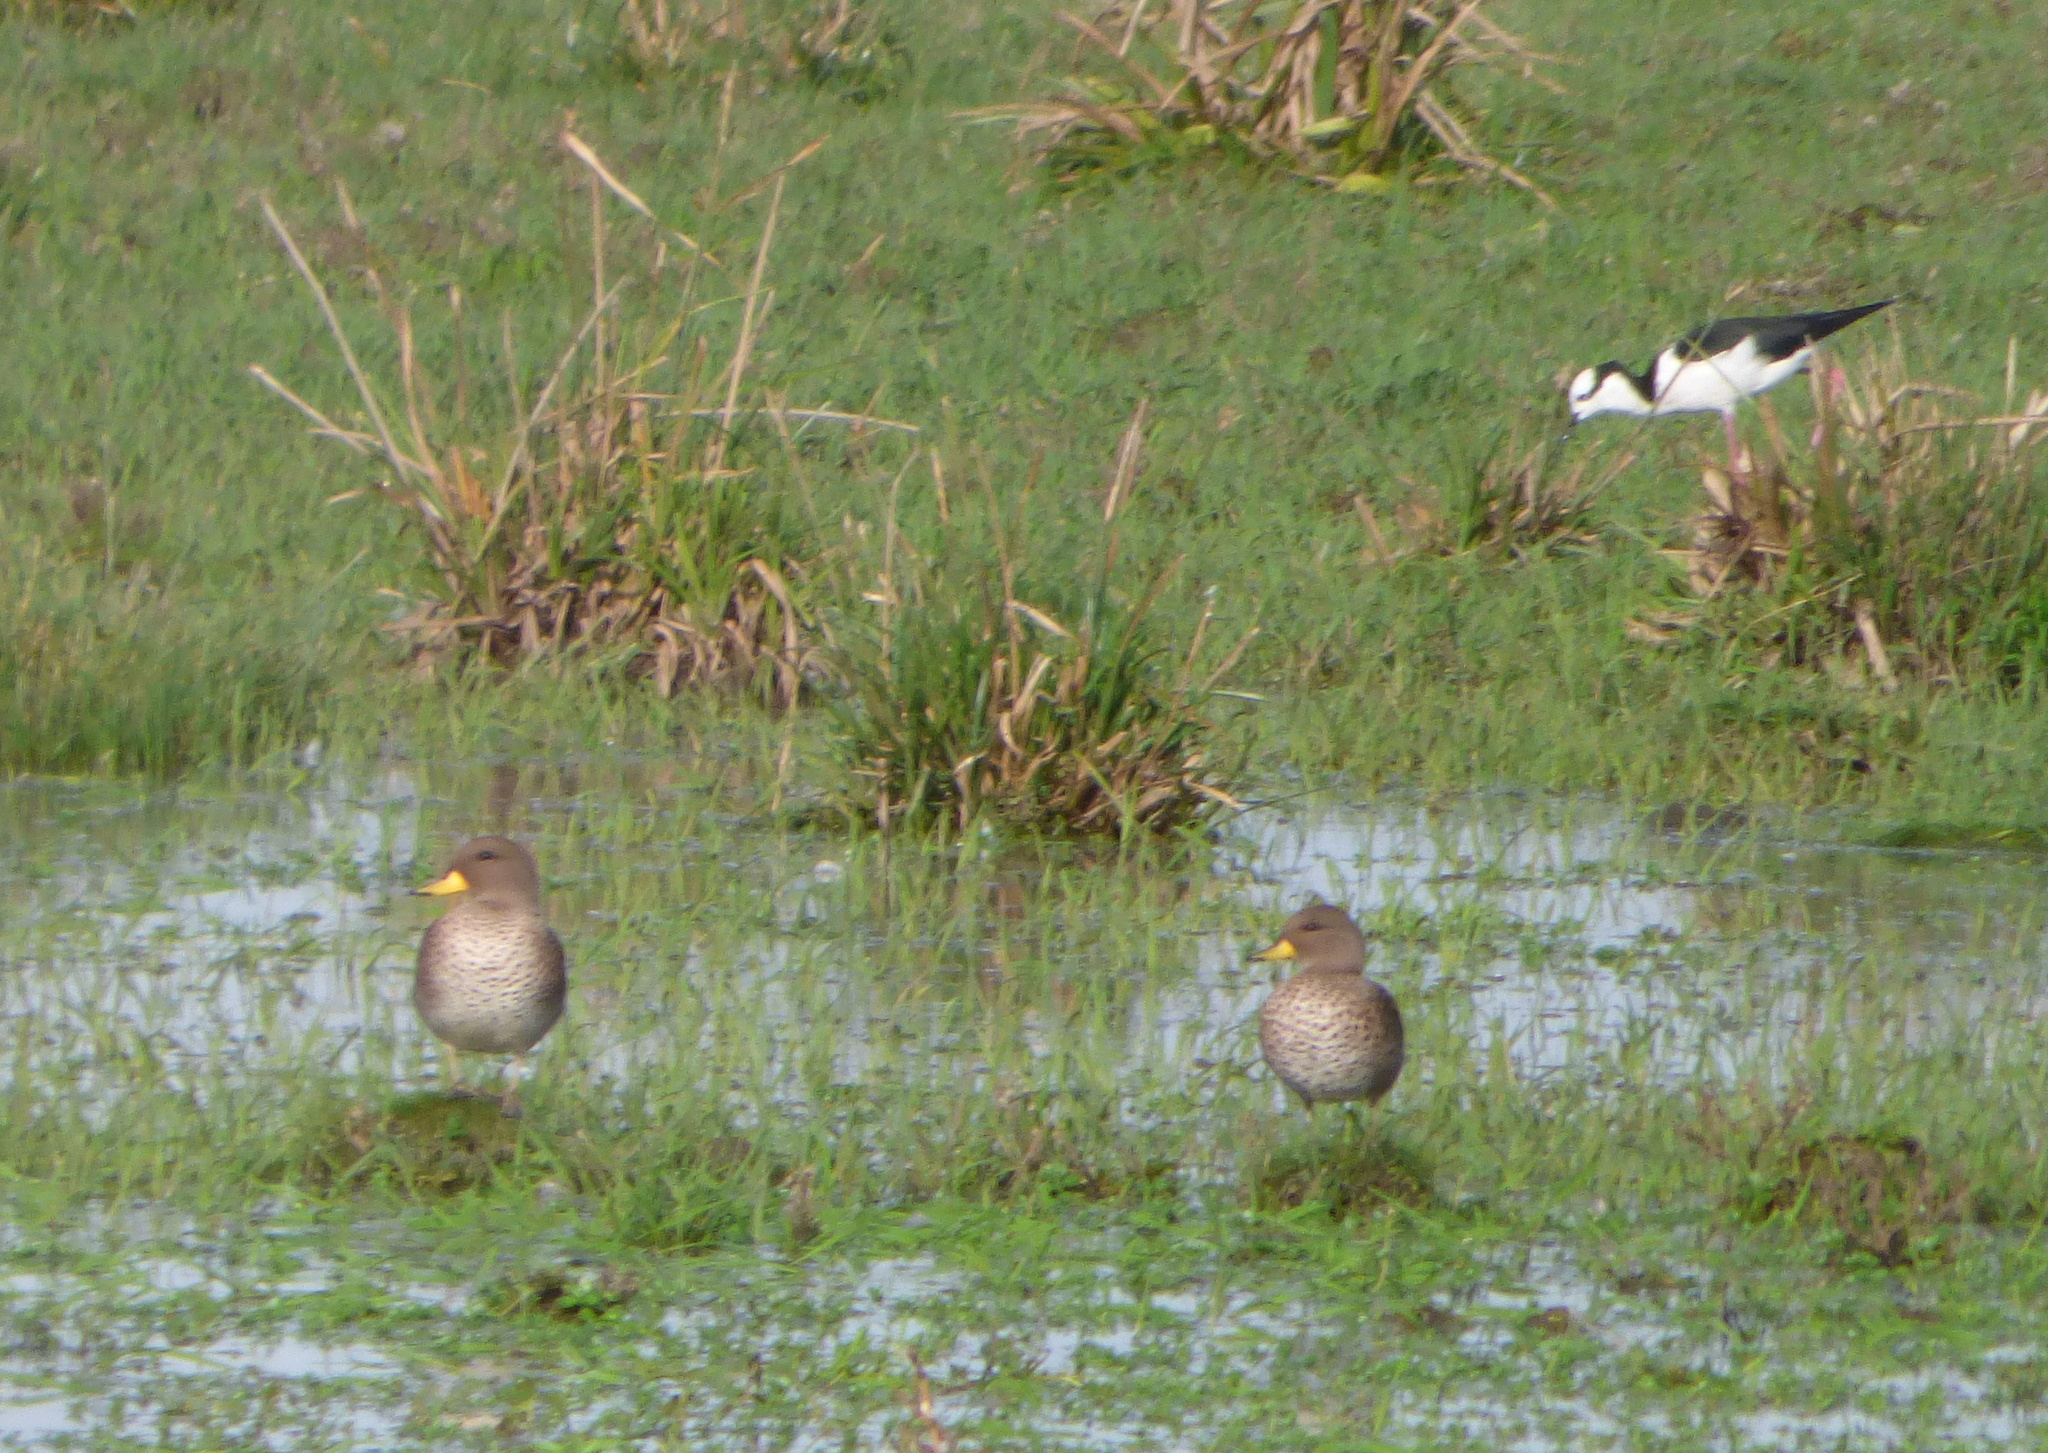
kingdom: Animalia
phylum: Chordata
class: Aves
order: Anseriformes
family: Anatidae
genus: Anas
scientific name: Anas flavirostris
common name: Yellow-billed teal
